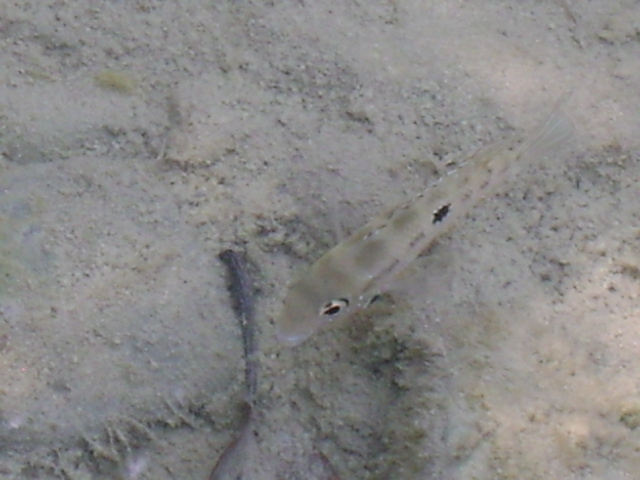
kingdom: Animalia
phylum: Chordata
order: Perciformes
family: Cichlidae
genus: Thorichthys
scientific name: Thorichthys maculipinnis
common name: Spotcheek cichlid
